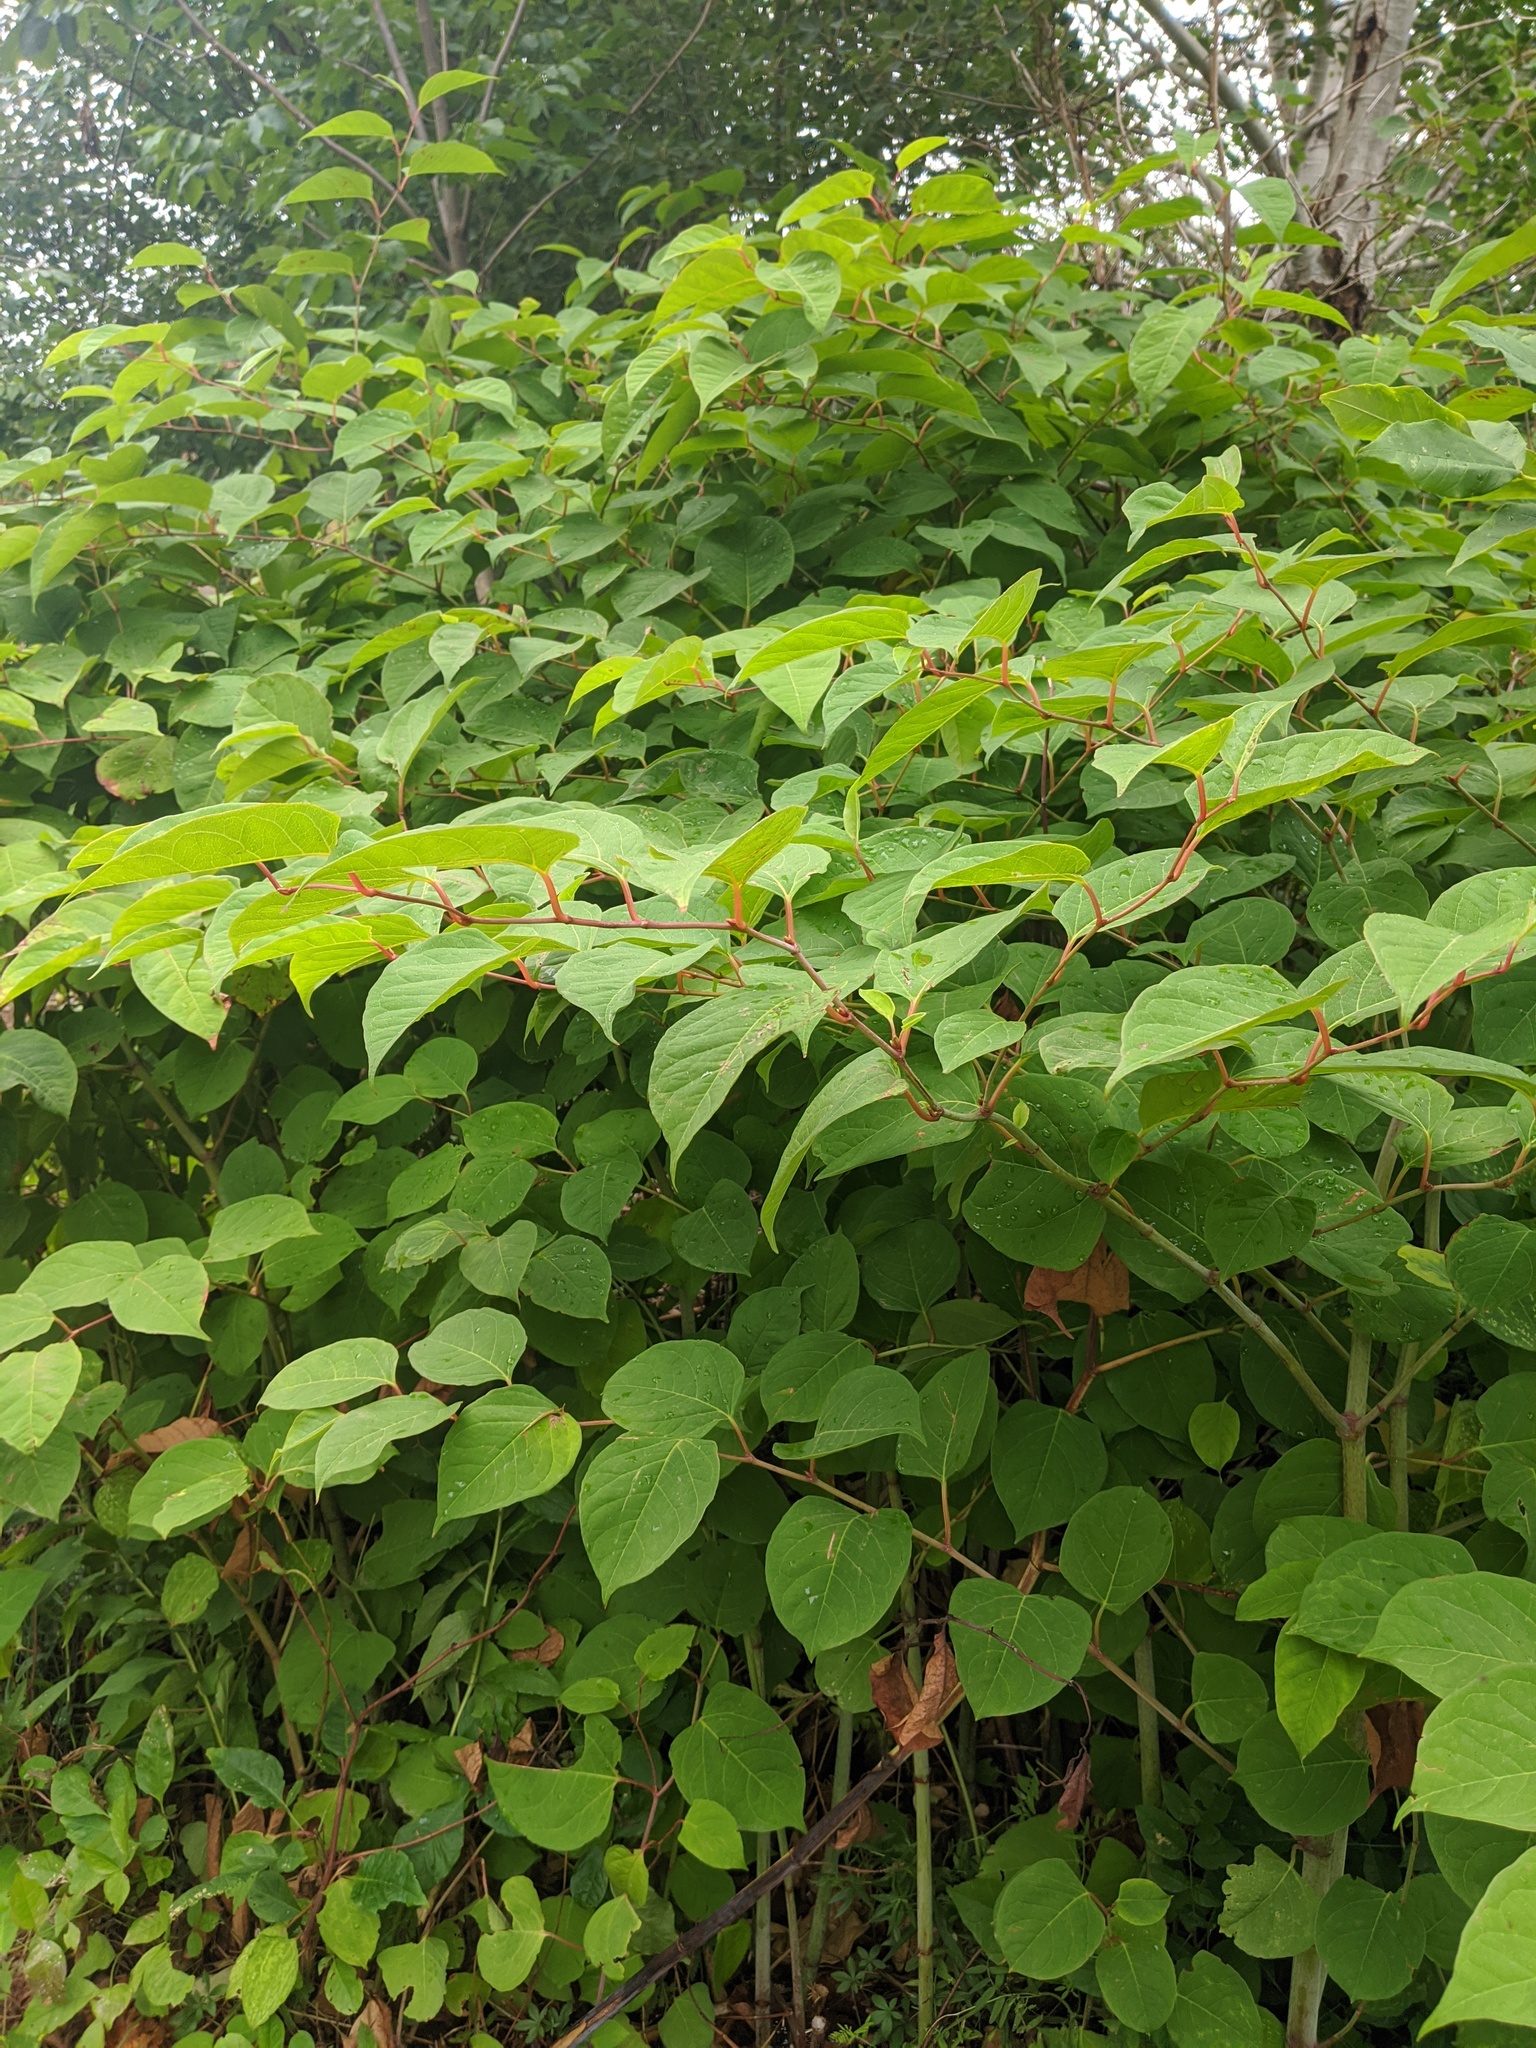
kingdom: Plantae
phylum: Tracheophyta
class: Magnoliopsida
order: Caryophyllales
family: Polygonaceae
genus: Reynoutria
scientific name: Reynoutria japonica
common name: Japanese knotweed
